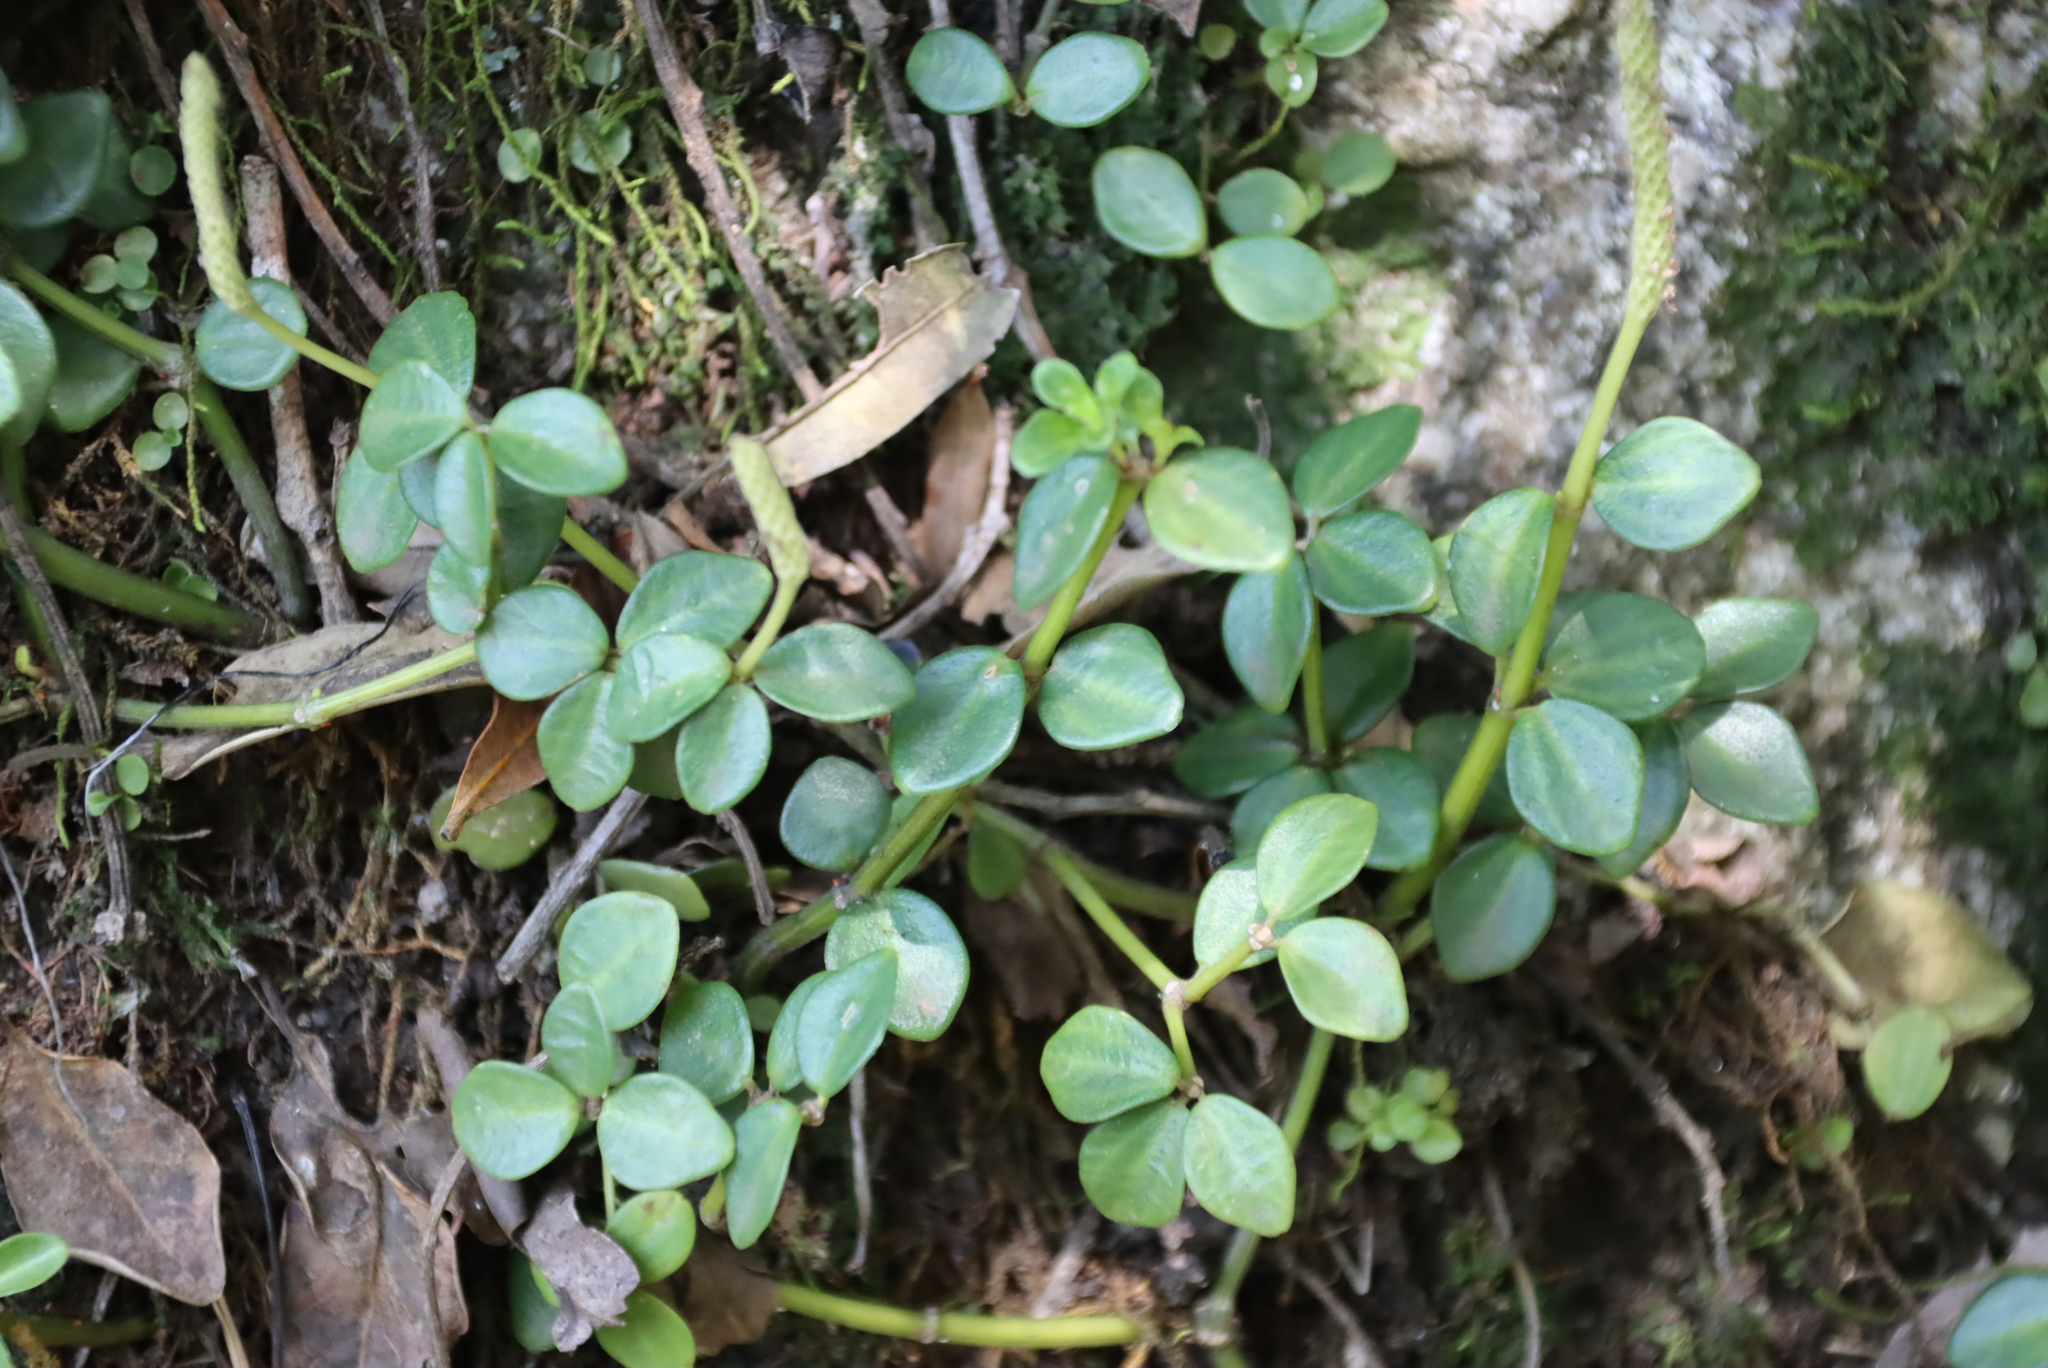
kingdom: Plantae
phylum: Tracheophyta
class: Magnoliopsida
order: Piperales
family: Piperaceae
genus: Peperomia
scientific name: Peperomia tetraphylla
